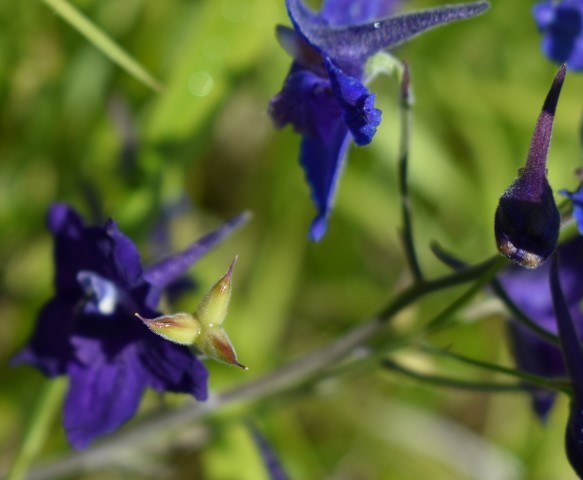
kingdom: Plantae
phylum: Tracheophyta
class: Magnoliopsida
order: Ranunculales
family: Ranunculaceae
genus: Delphinium
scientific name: Delphinium menziesii
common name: Menzies's larkspur
